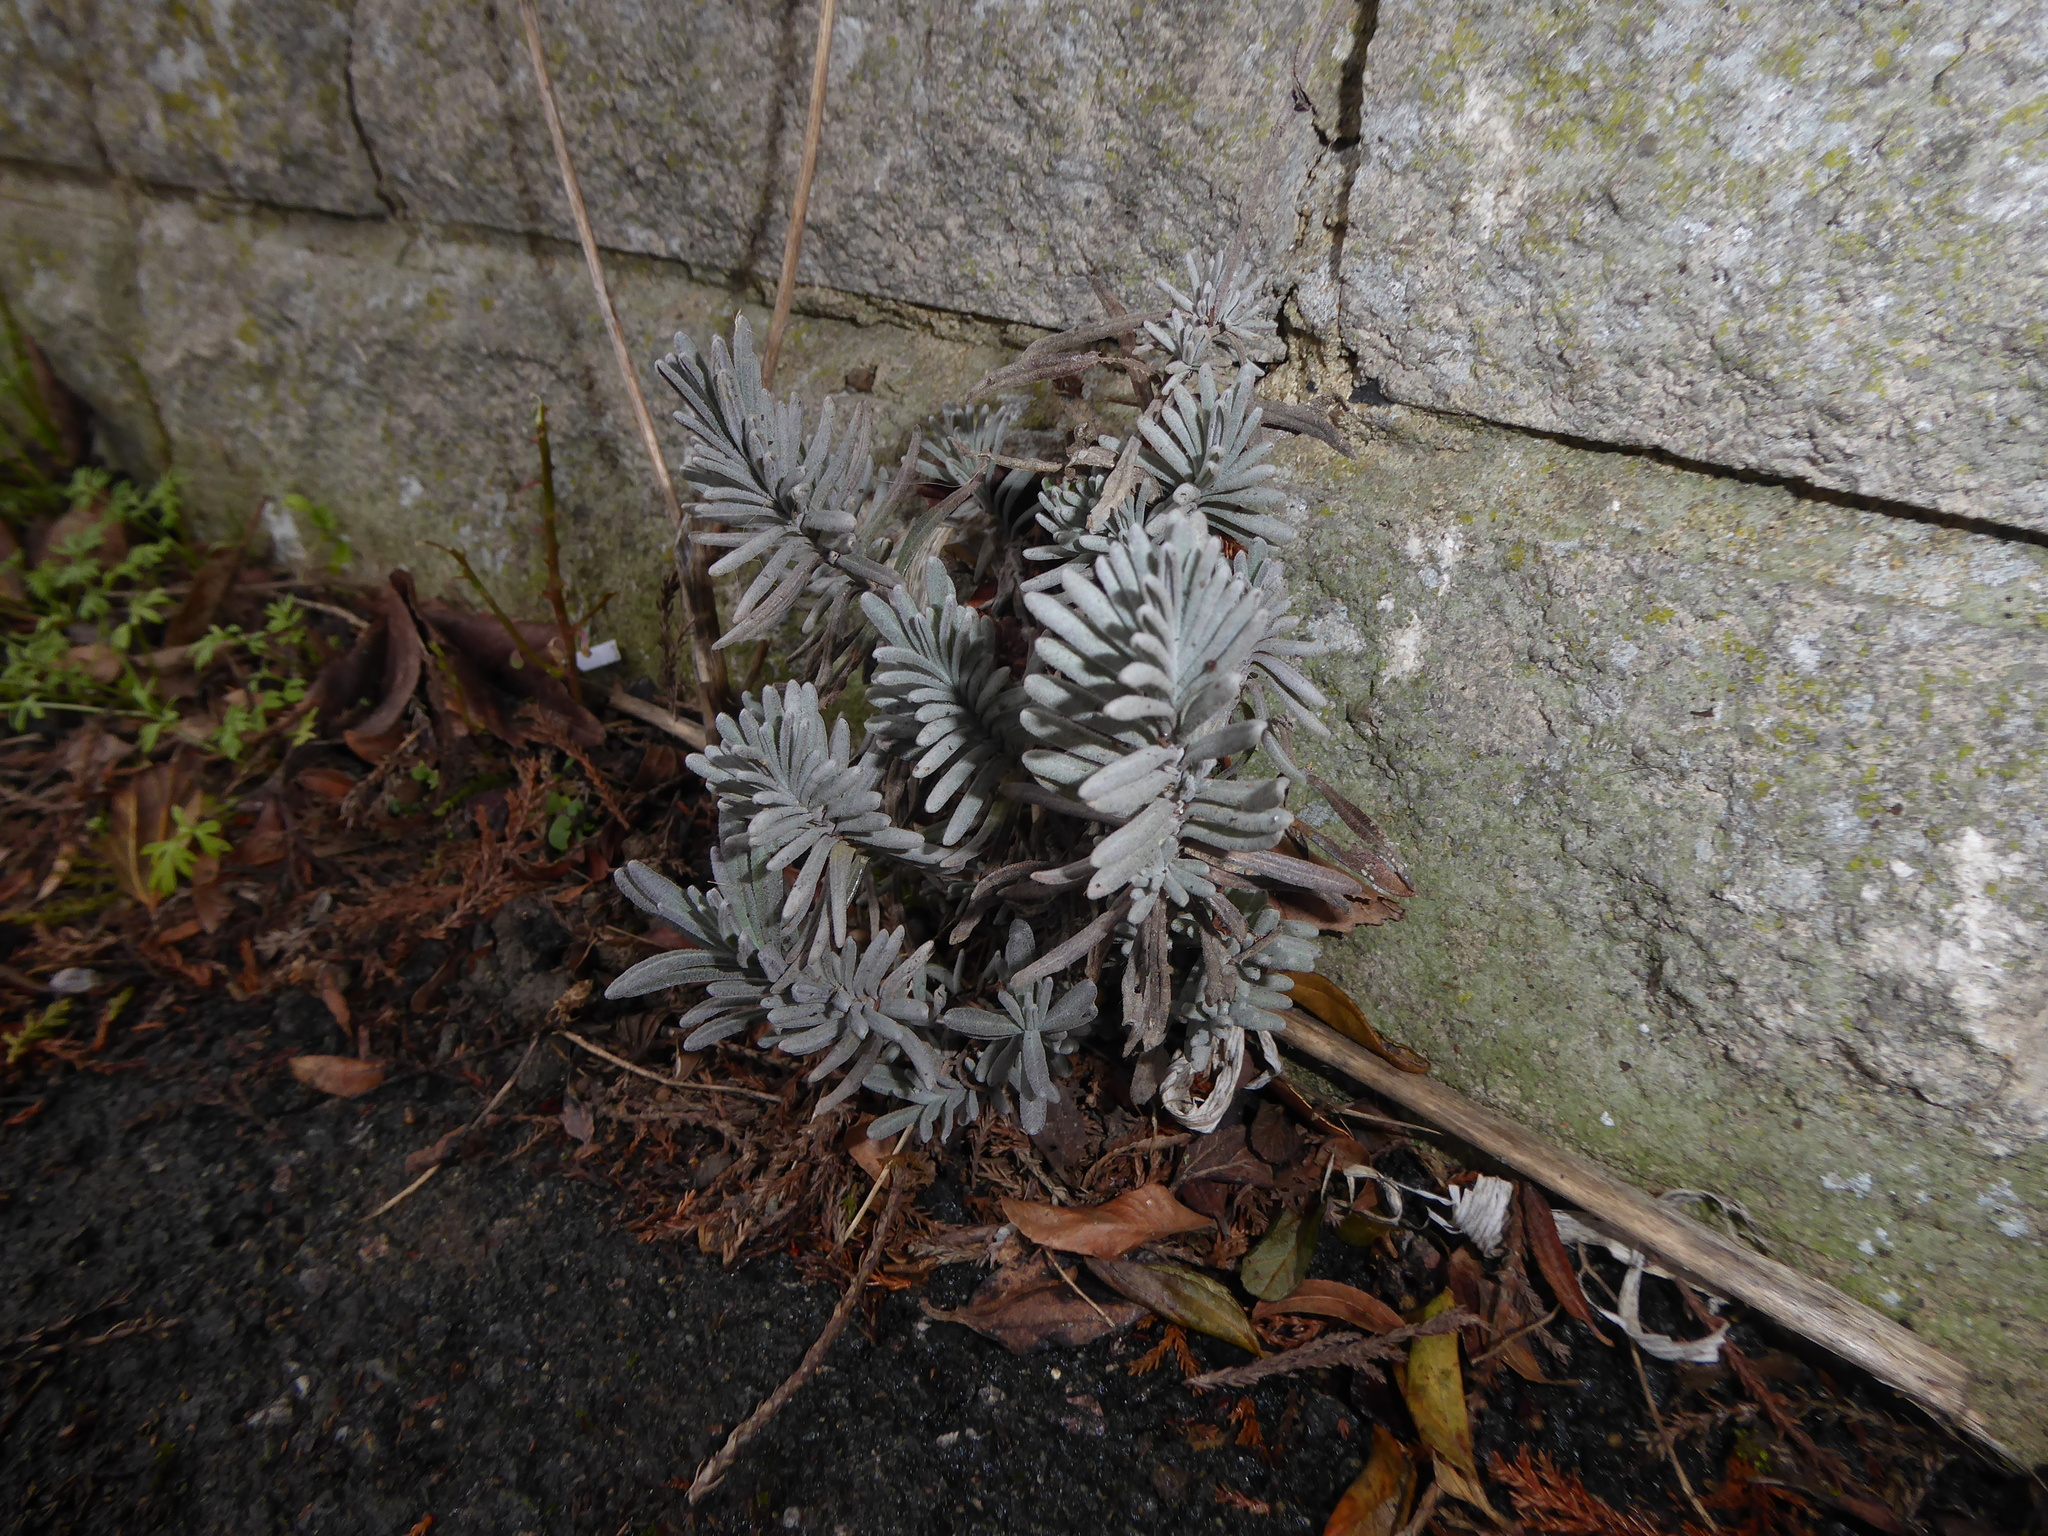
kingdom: Plantae
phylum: Tracheophyta
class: Magnoliopsida
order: Lamiales
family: Lamiaceae
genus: Lavandula
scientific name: Lavandula angustifolia
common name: Garden lavender
